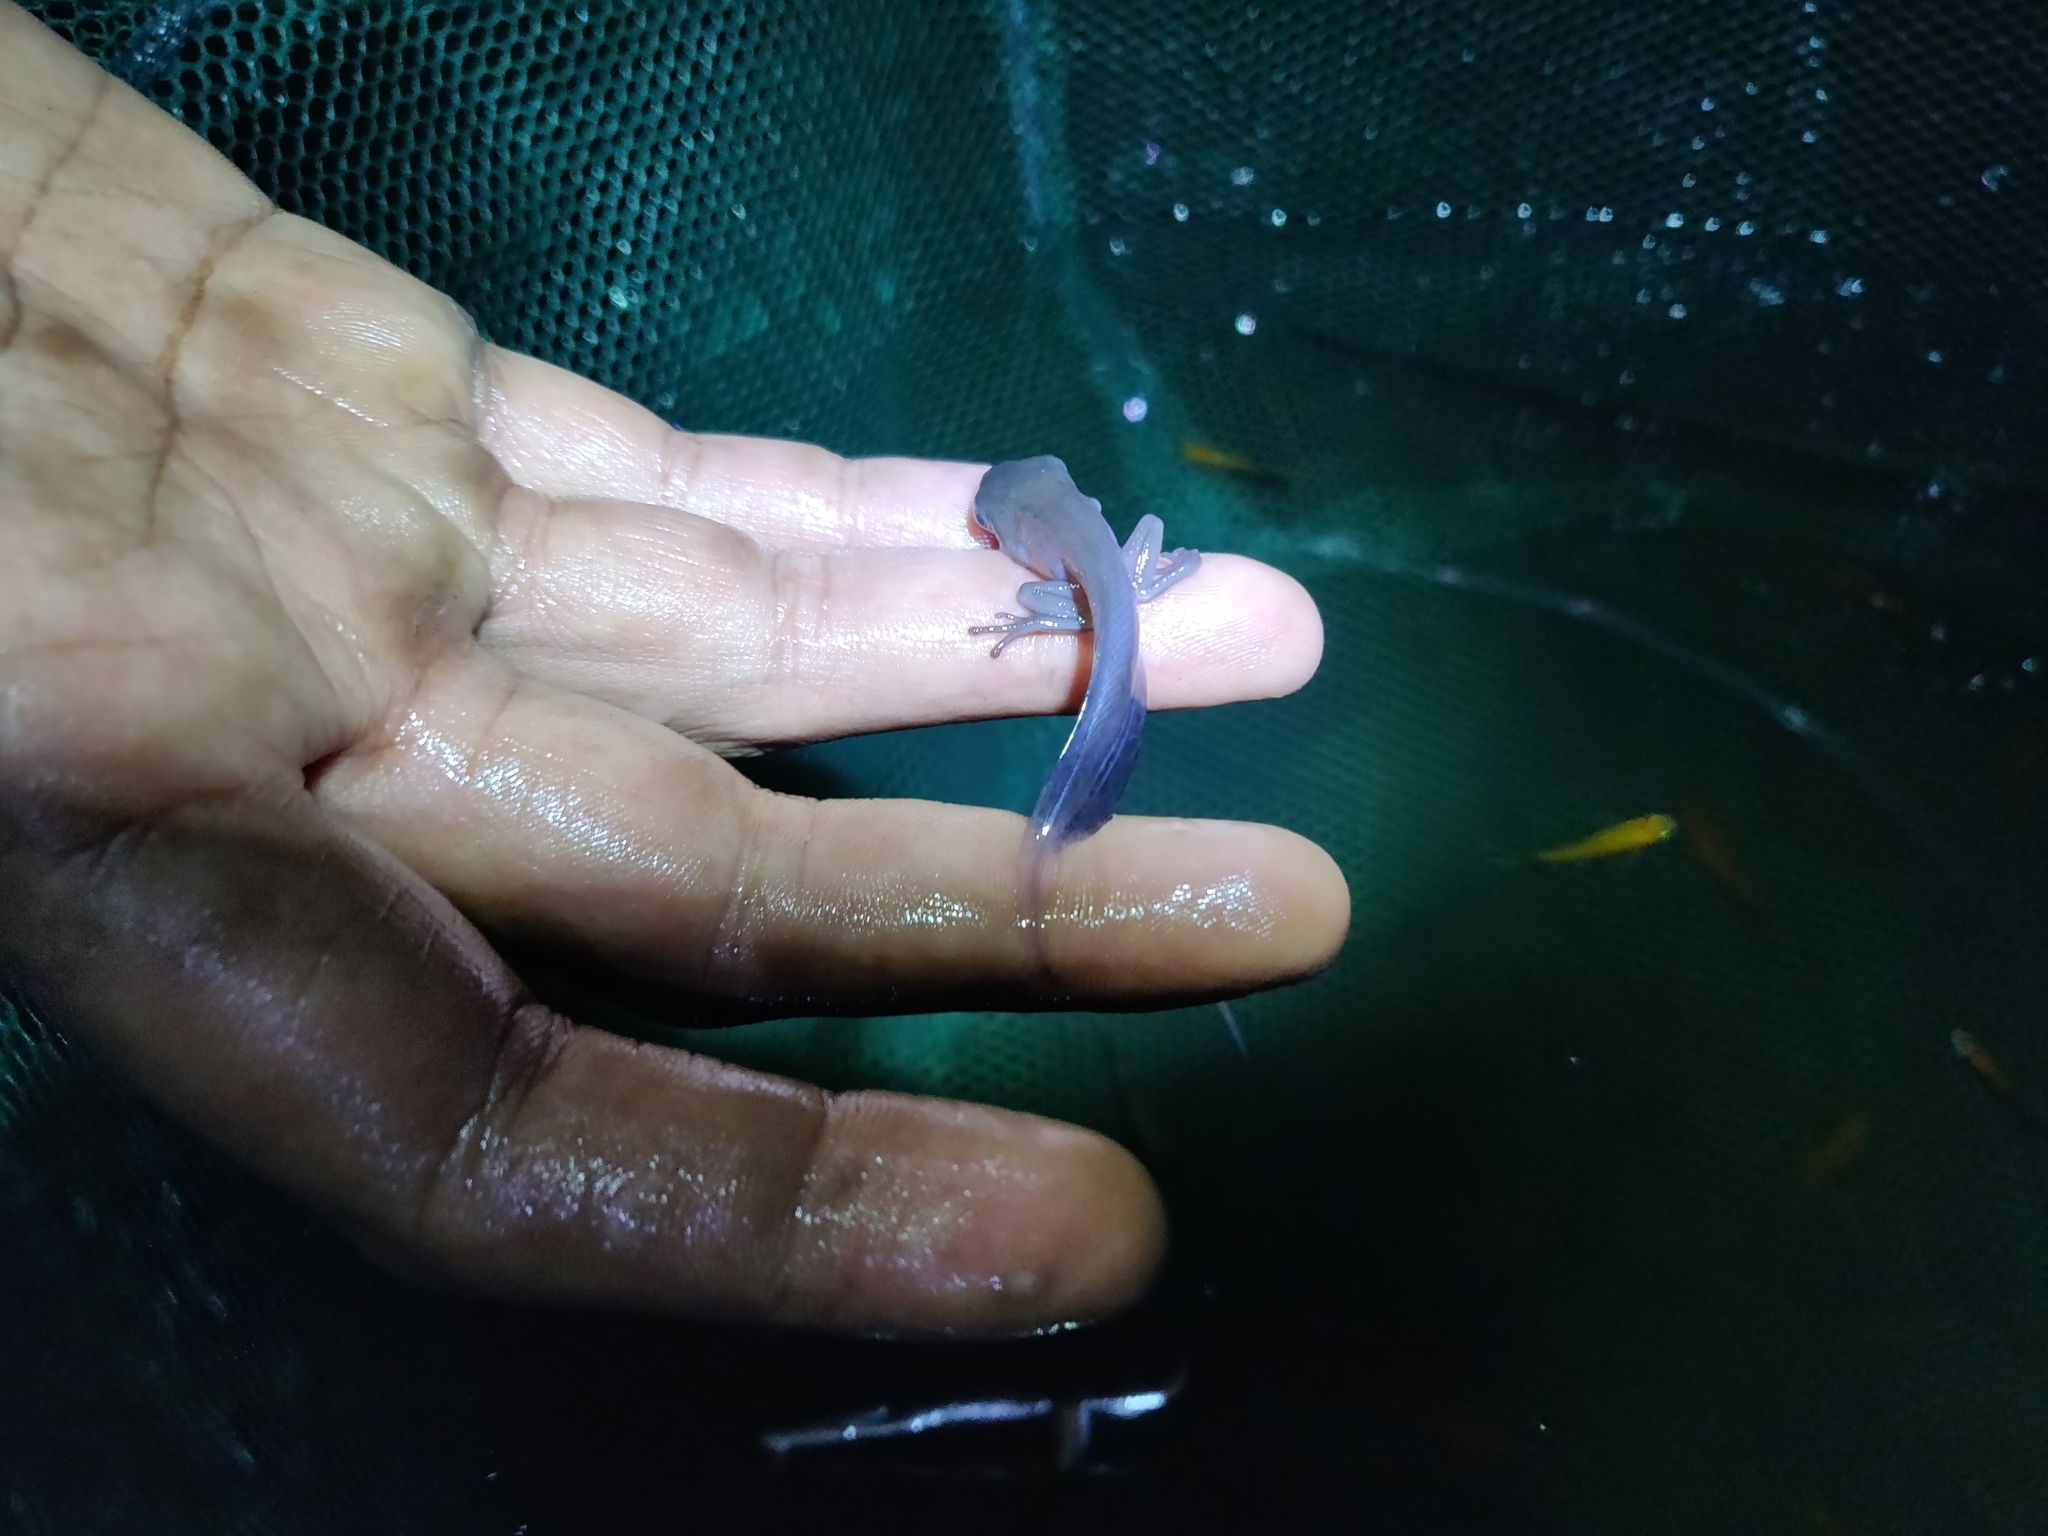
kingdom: Animalia
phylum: Chordata
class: Amphibia
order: Anura
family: Hylidae
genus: Boana
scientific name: Boana boans
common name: Giant gladiator treefrog
